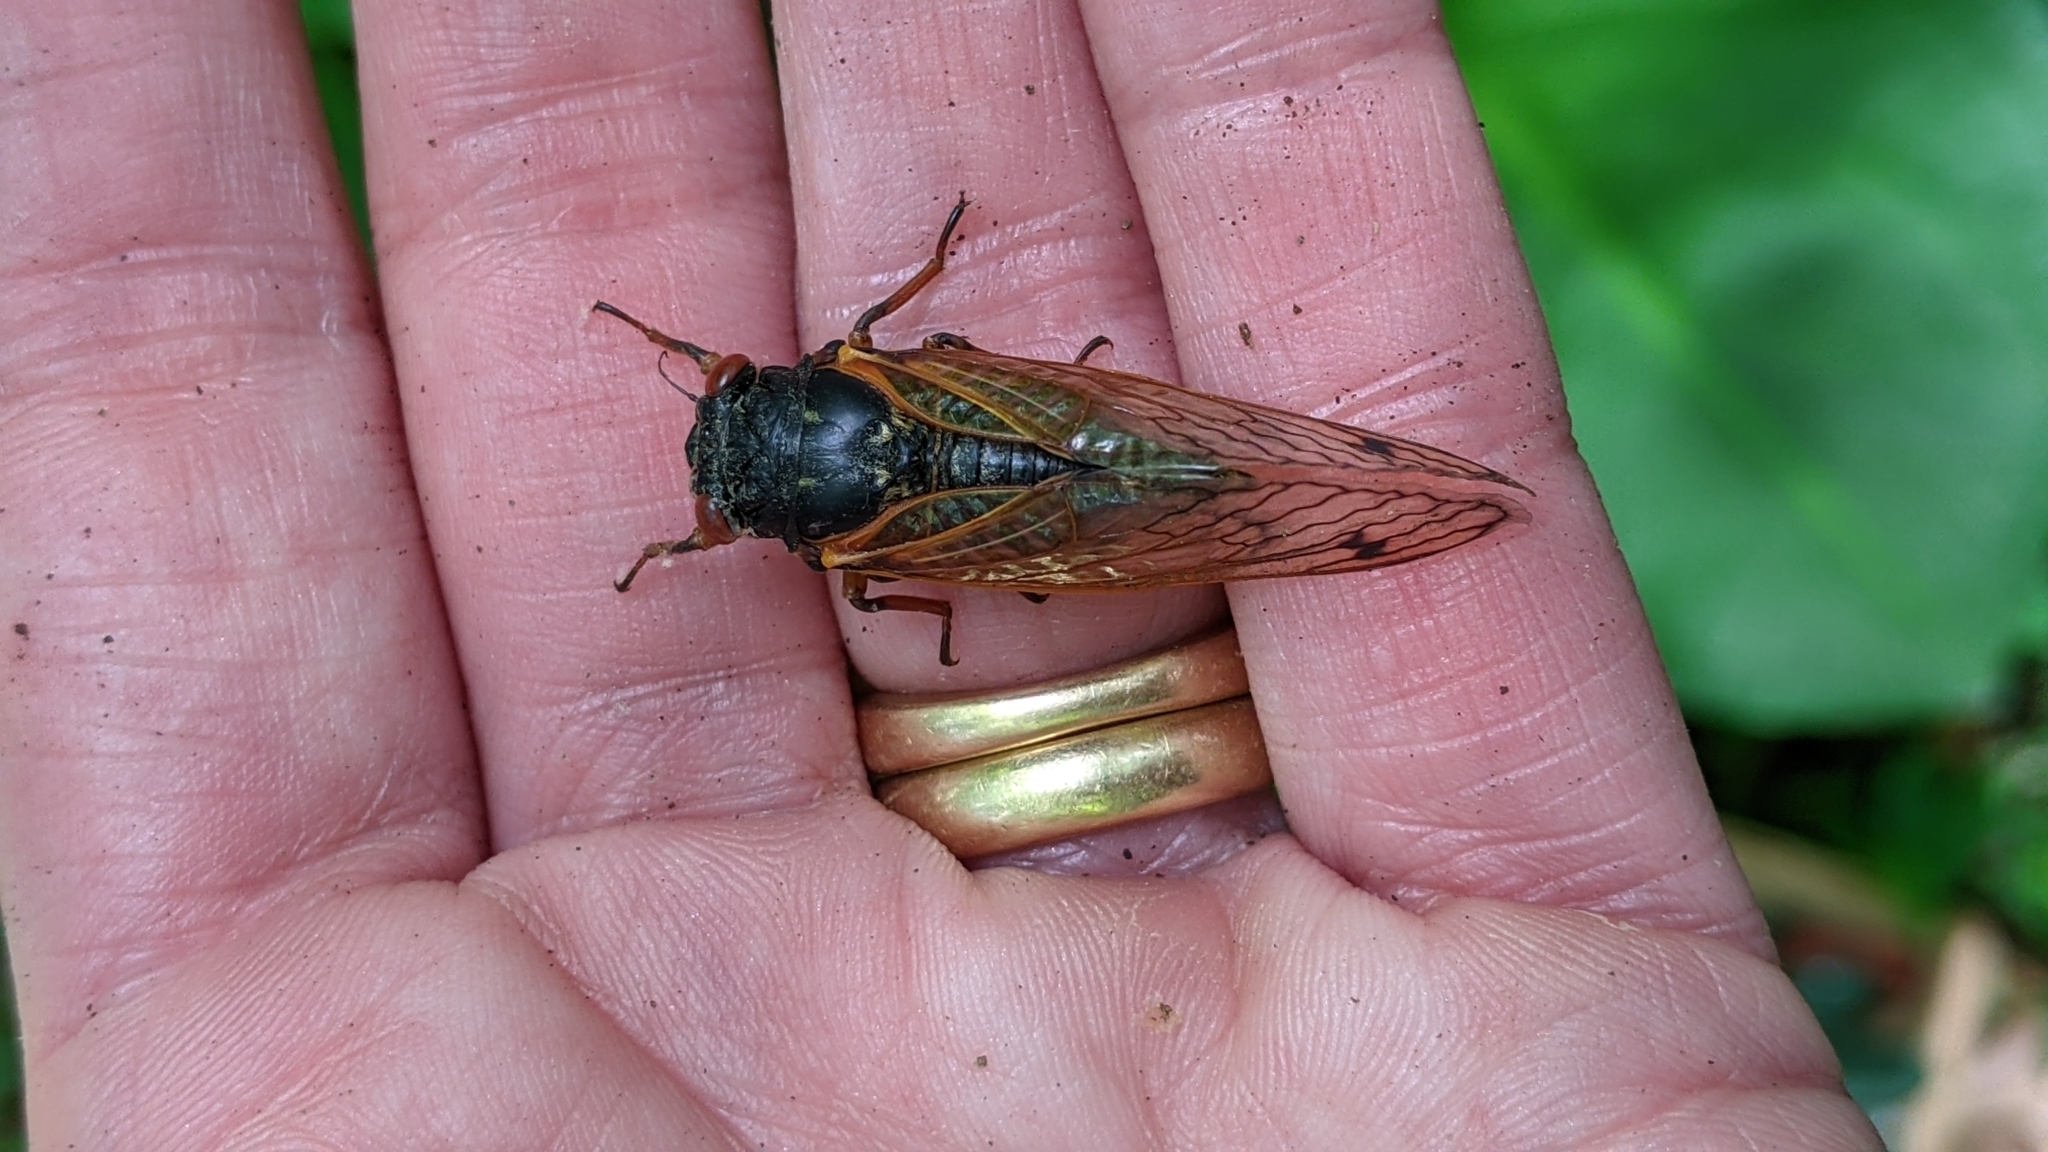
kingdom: Animalia
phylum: Arthropoda
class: Insecta
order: Hemiptera
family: Cicadidae
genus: Magicicada
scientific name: Magicicada cassini
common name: Cassin's 17-year cicada
